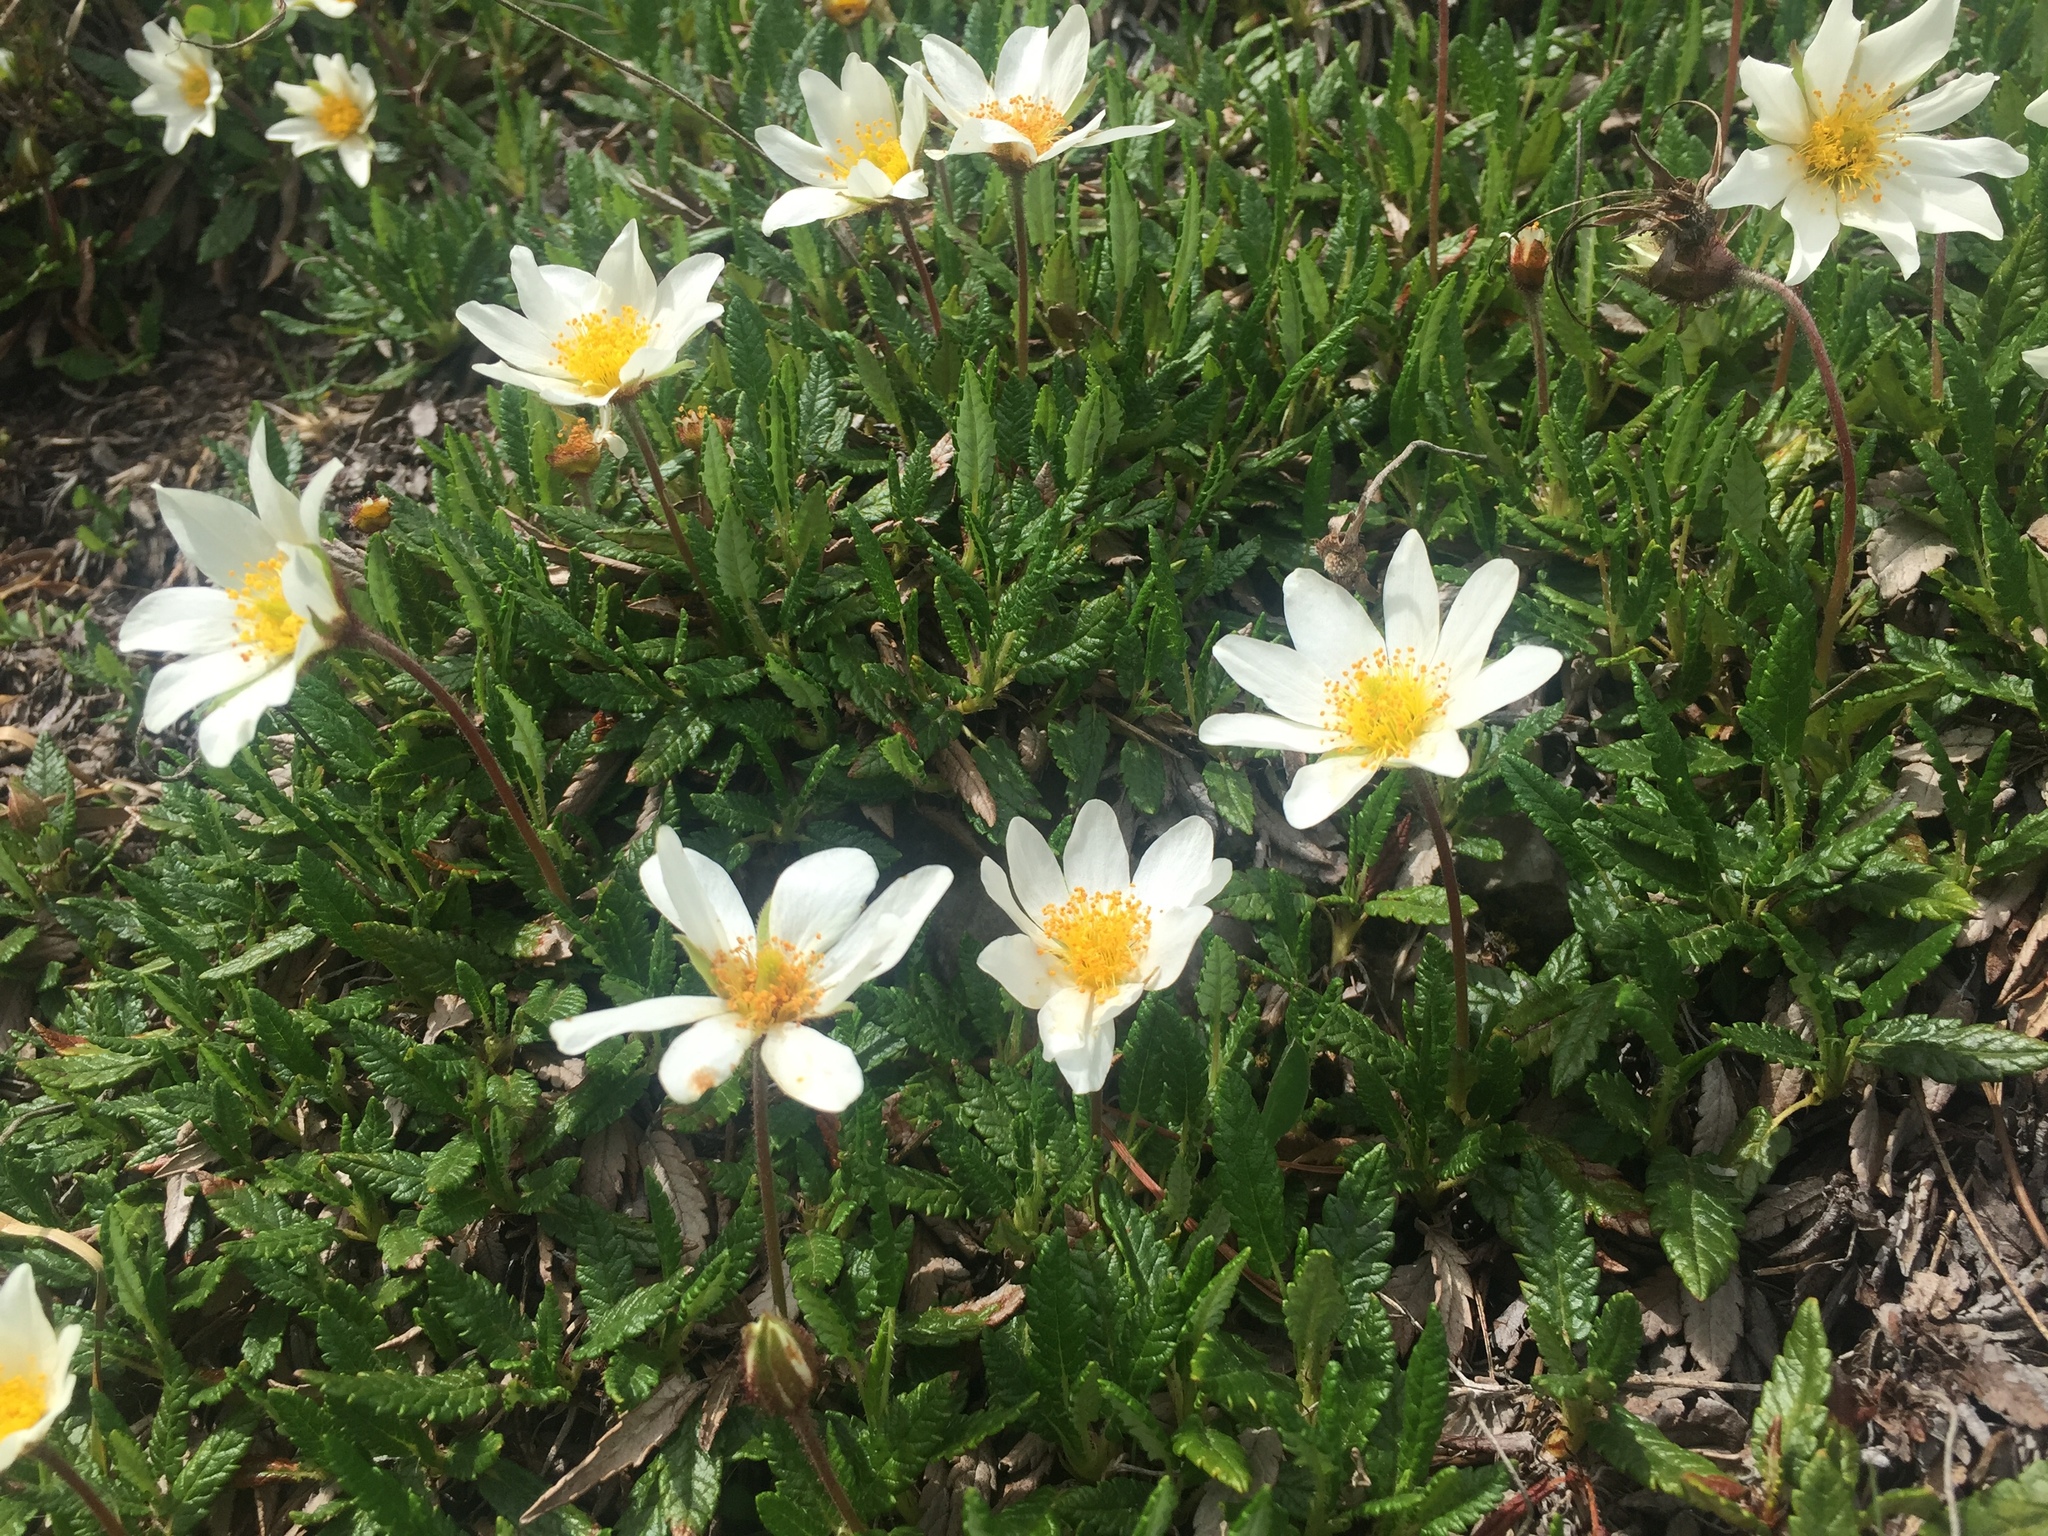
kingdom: Plantae
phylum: Tracheophyta
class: Magnoliopsida
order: Rosales
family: Rosaceae
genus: Dryas
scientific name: Dryas octopetala
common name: Eight-petal mountain-avens
